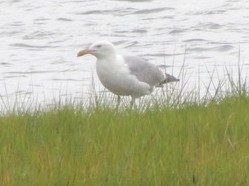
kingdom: Animalia
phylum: Chordata
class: Aves
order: Charadriiformes
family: Laridae
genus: Larus
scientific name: Larus argentatus
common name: Herring gull
